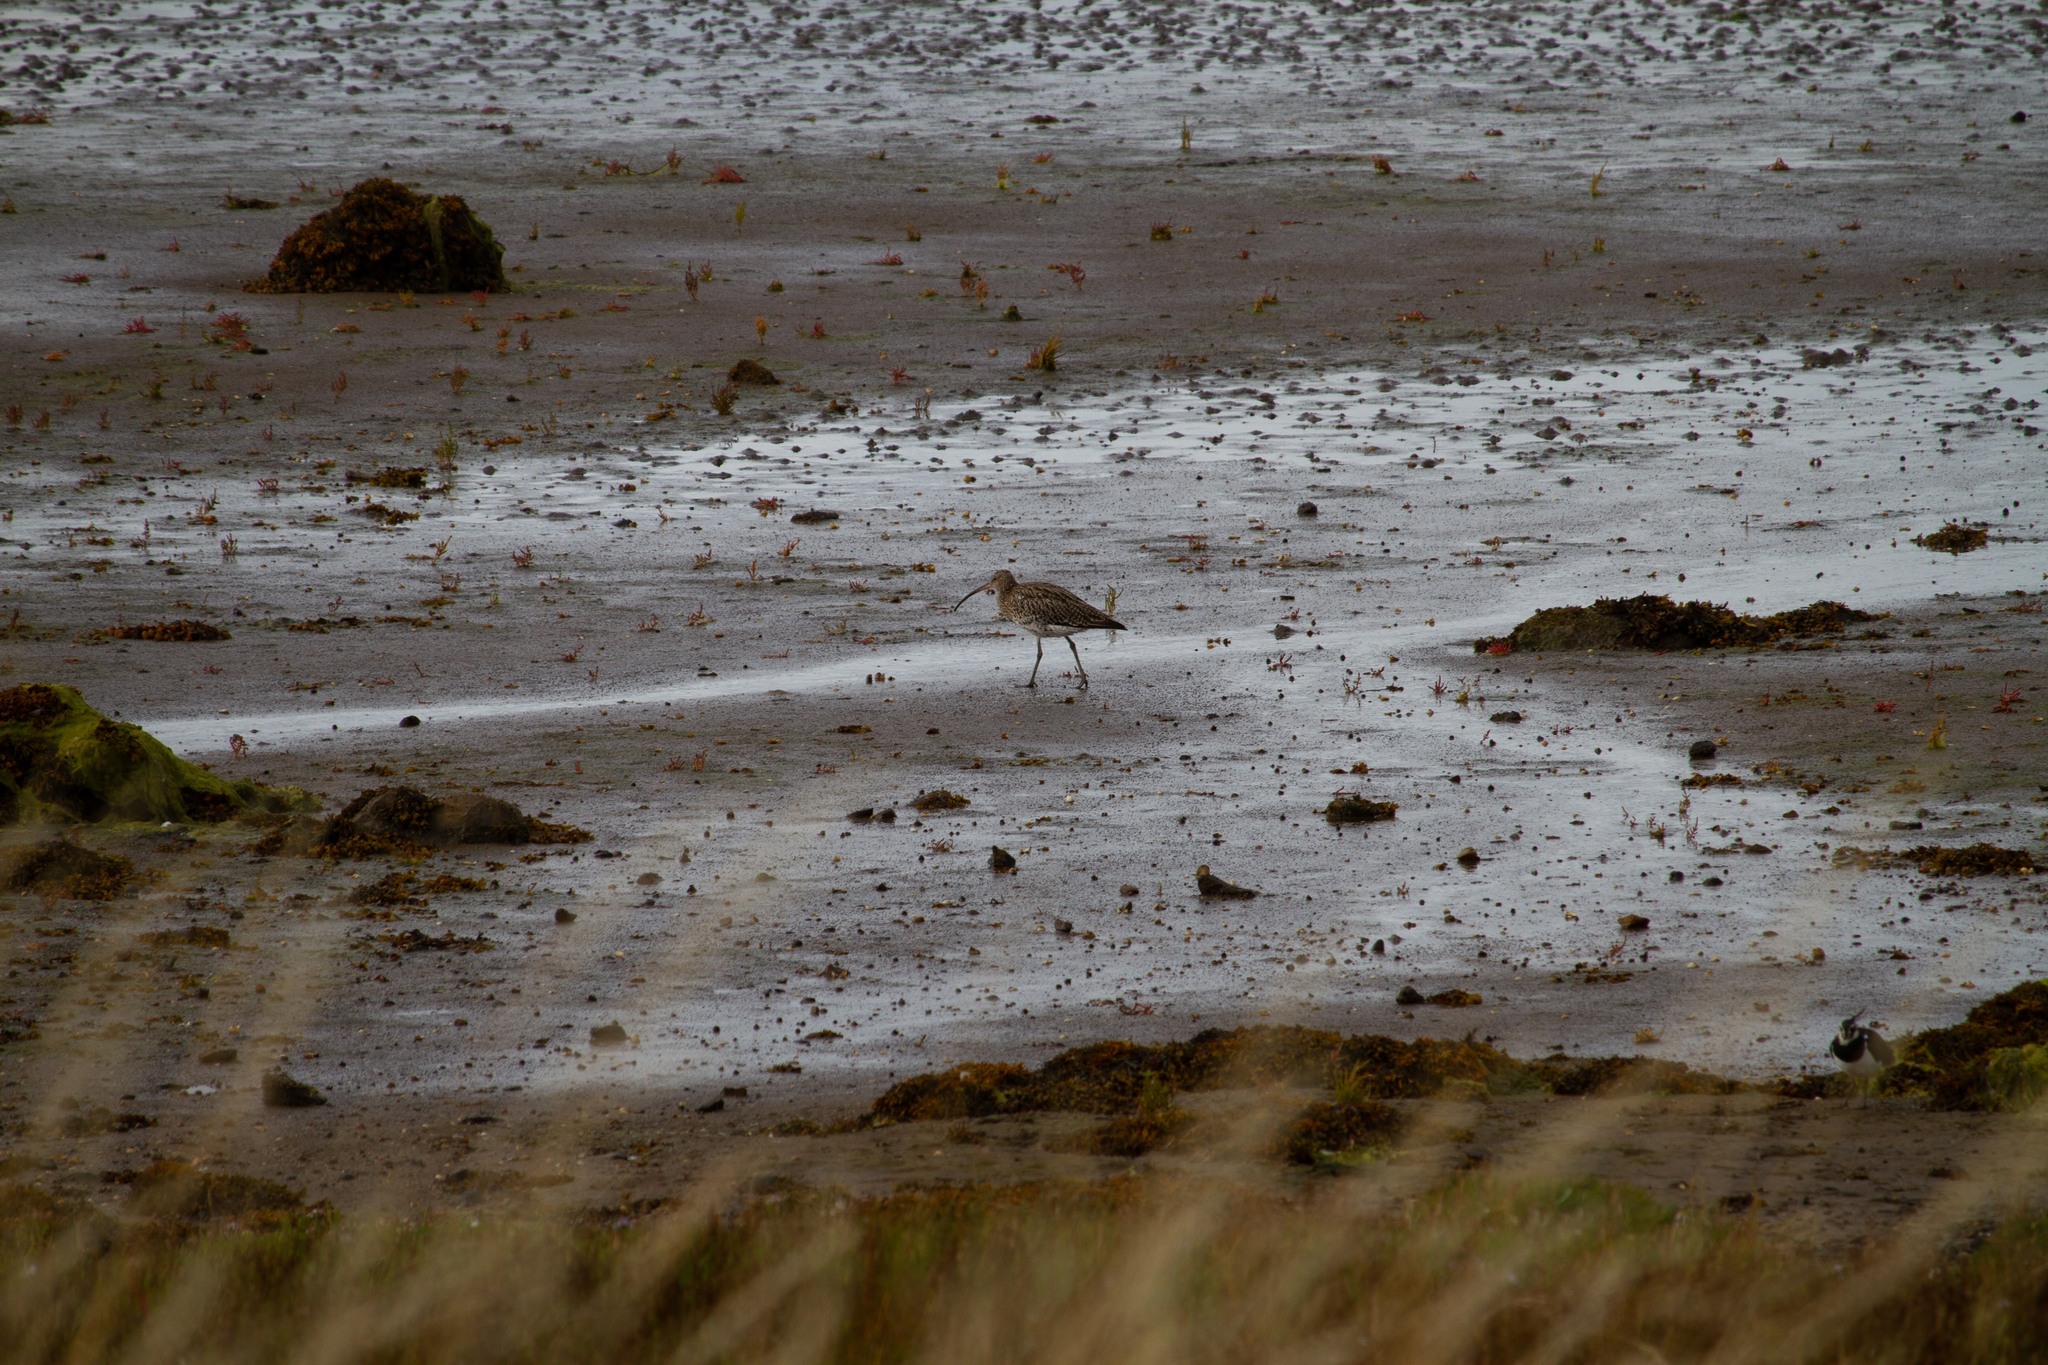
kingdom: Animalia
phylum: Chordata
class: Aves
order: Charadriiformes
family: Scolopacidae
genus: Numenius
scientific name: Numenius arquata
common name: Eurasian curlew
